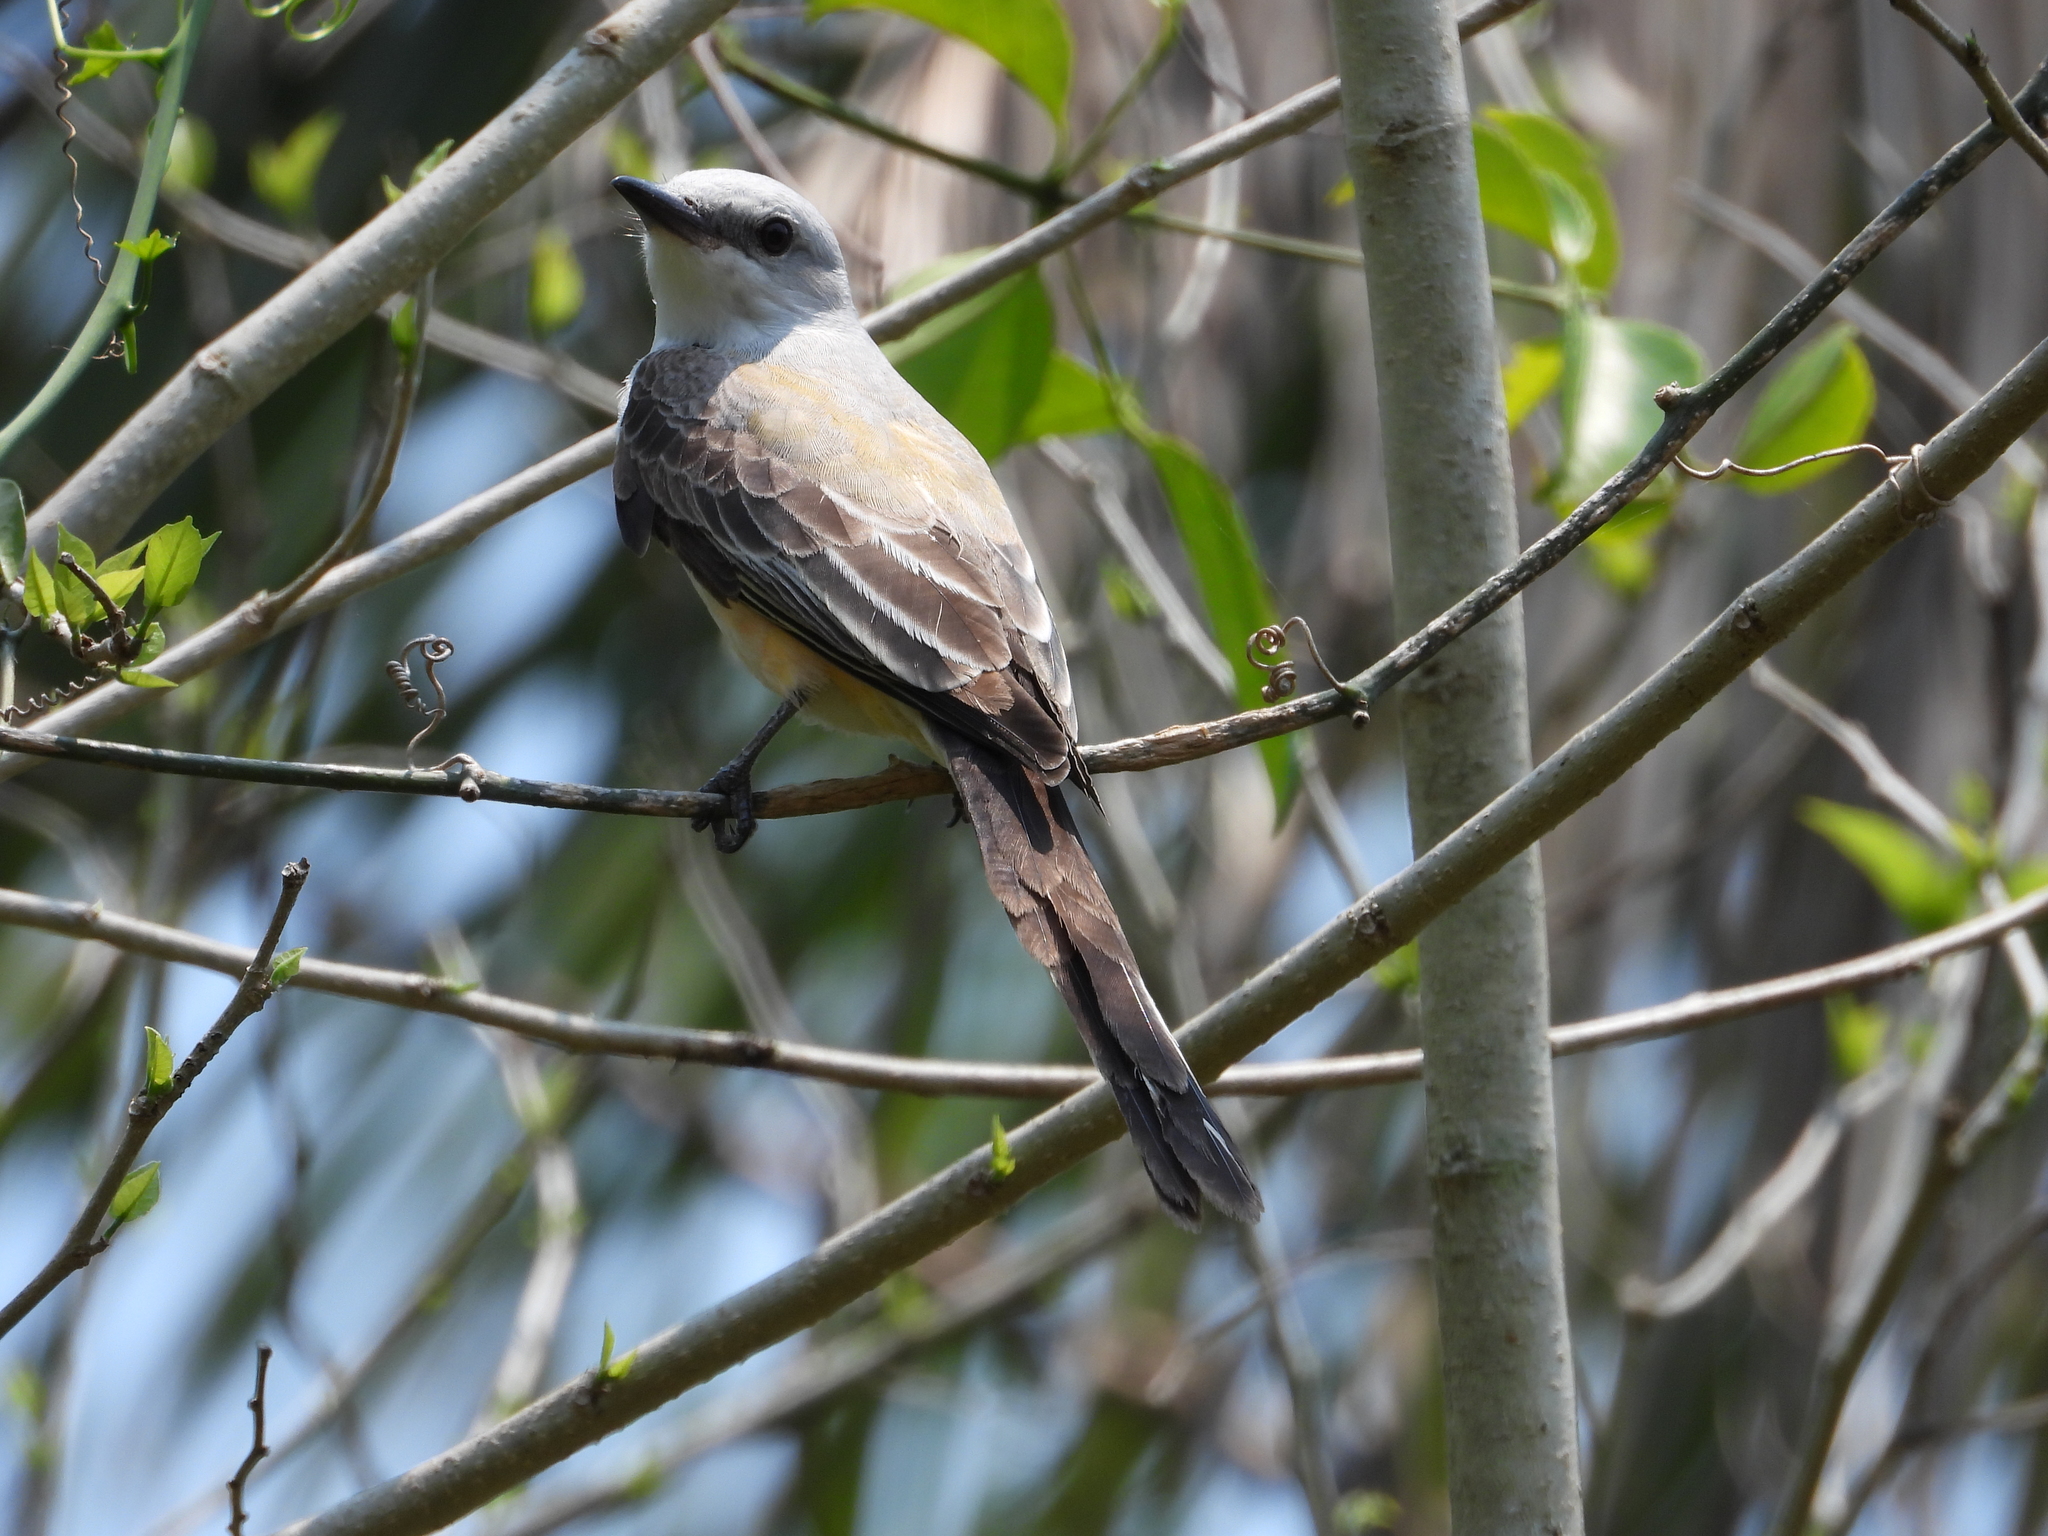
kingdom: Animalia
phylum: Chordata
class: Aves
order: Passeriformes
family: Tyrannidae
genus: Tyrannus
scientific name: Tyrannus forficatus
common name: Scissor-tailed flycatcher
